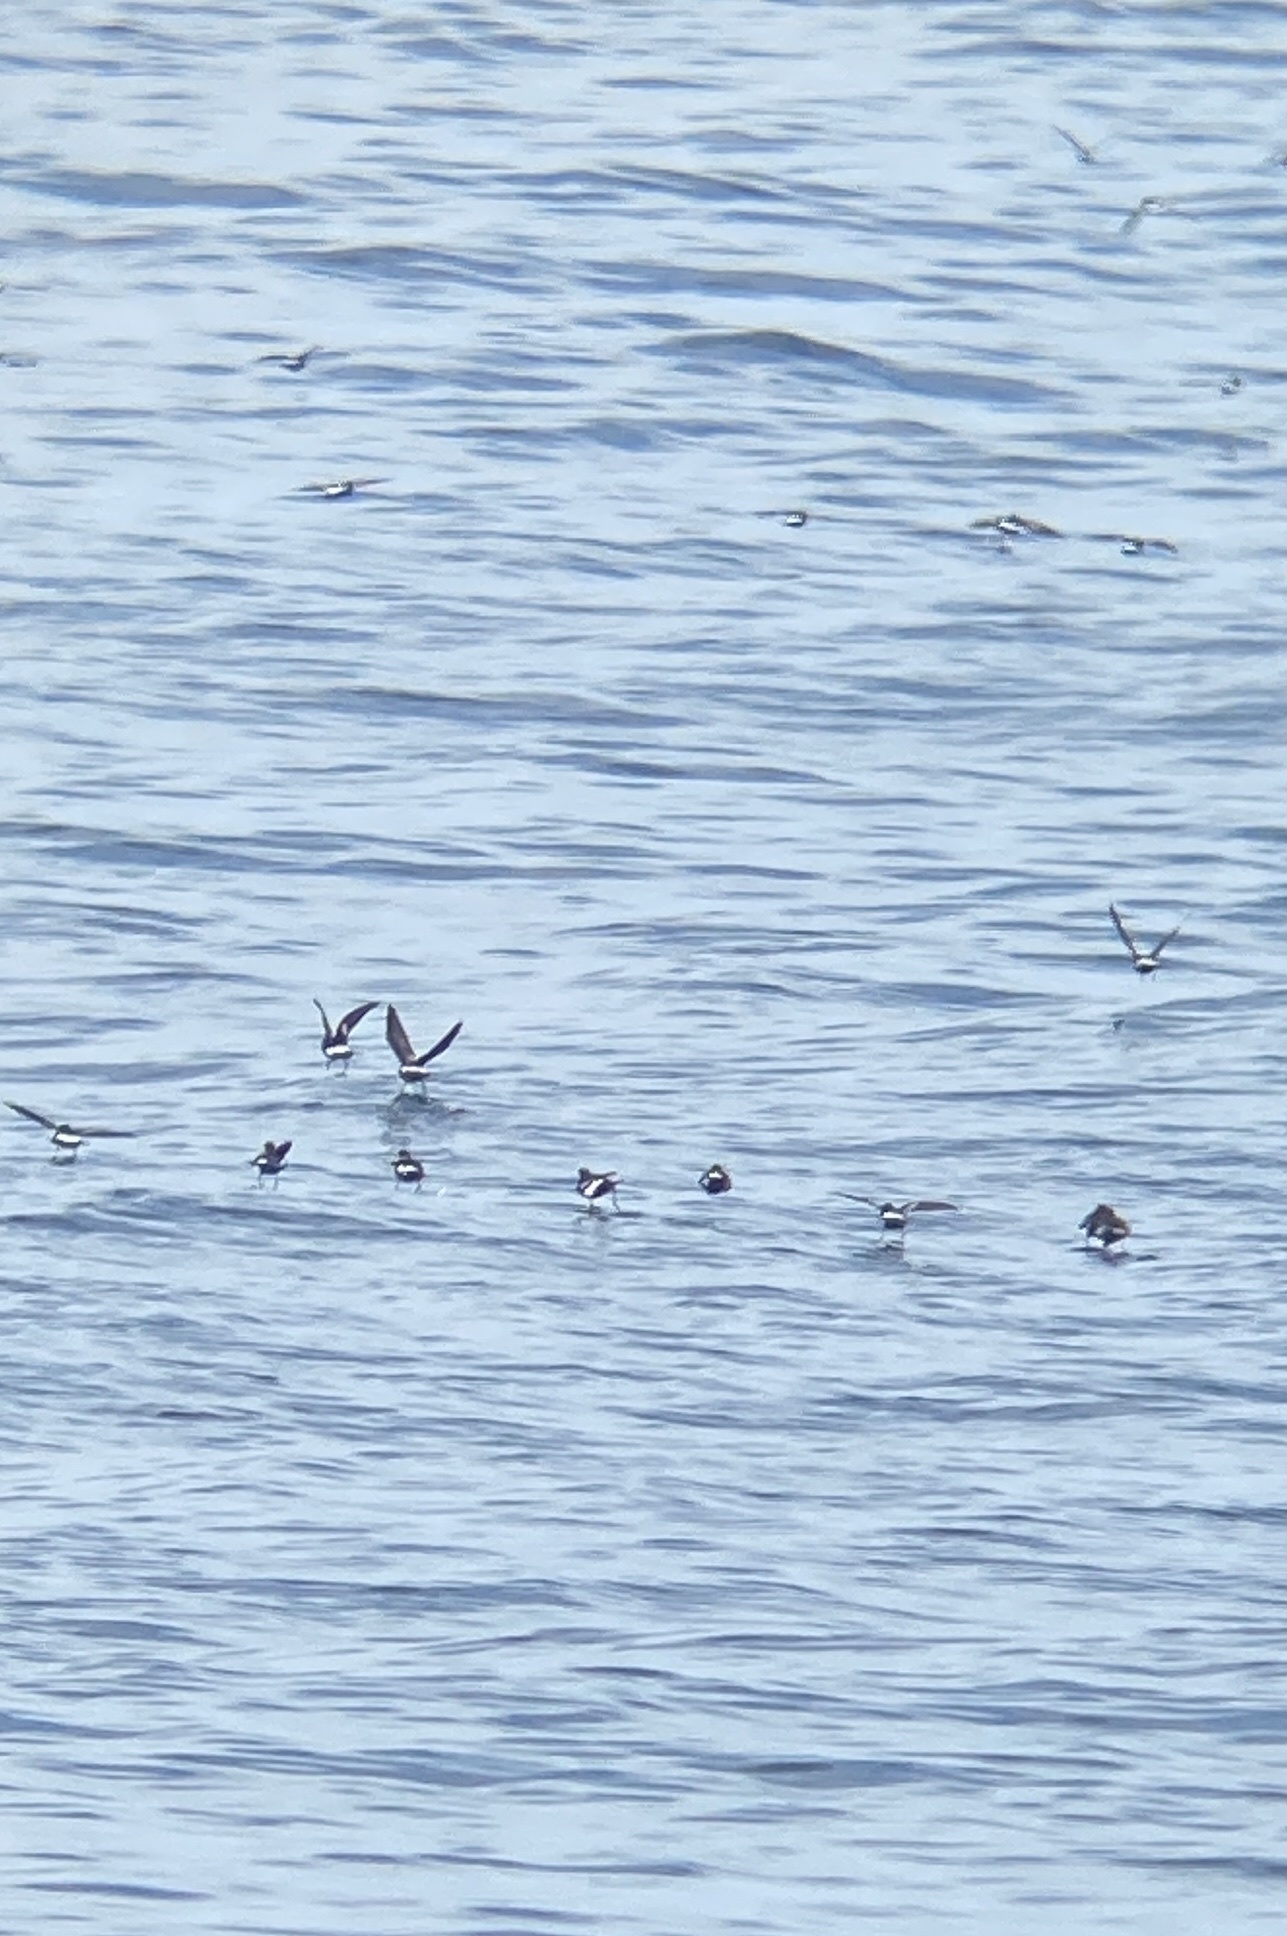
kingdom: Animalia
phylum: Chordata
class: Aves
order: Procellariiformes
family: Hydrobatidae
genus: Oceanites
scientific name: Oceanites oceanicus
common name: Wilson's storm petrel
